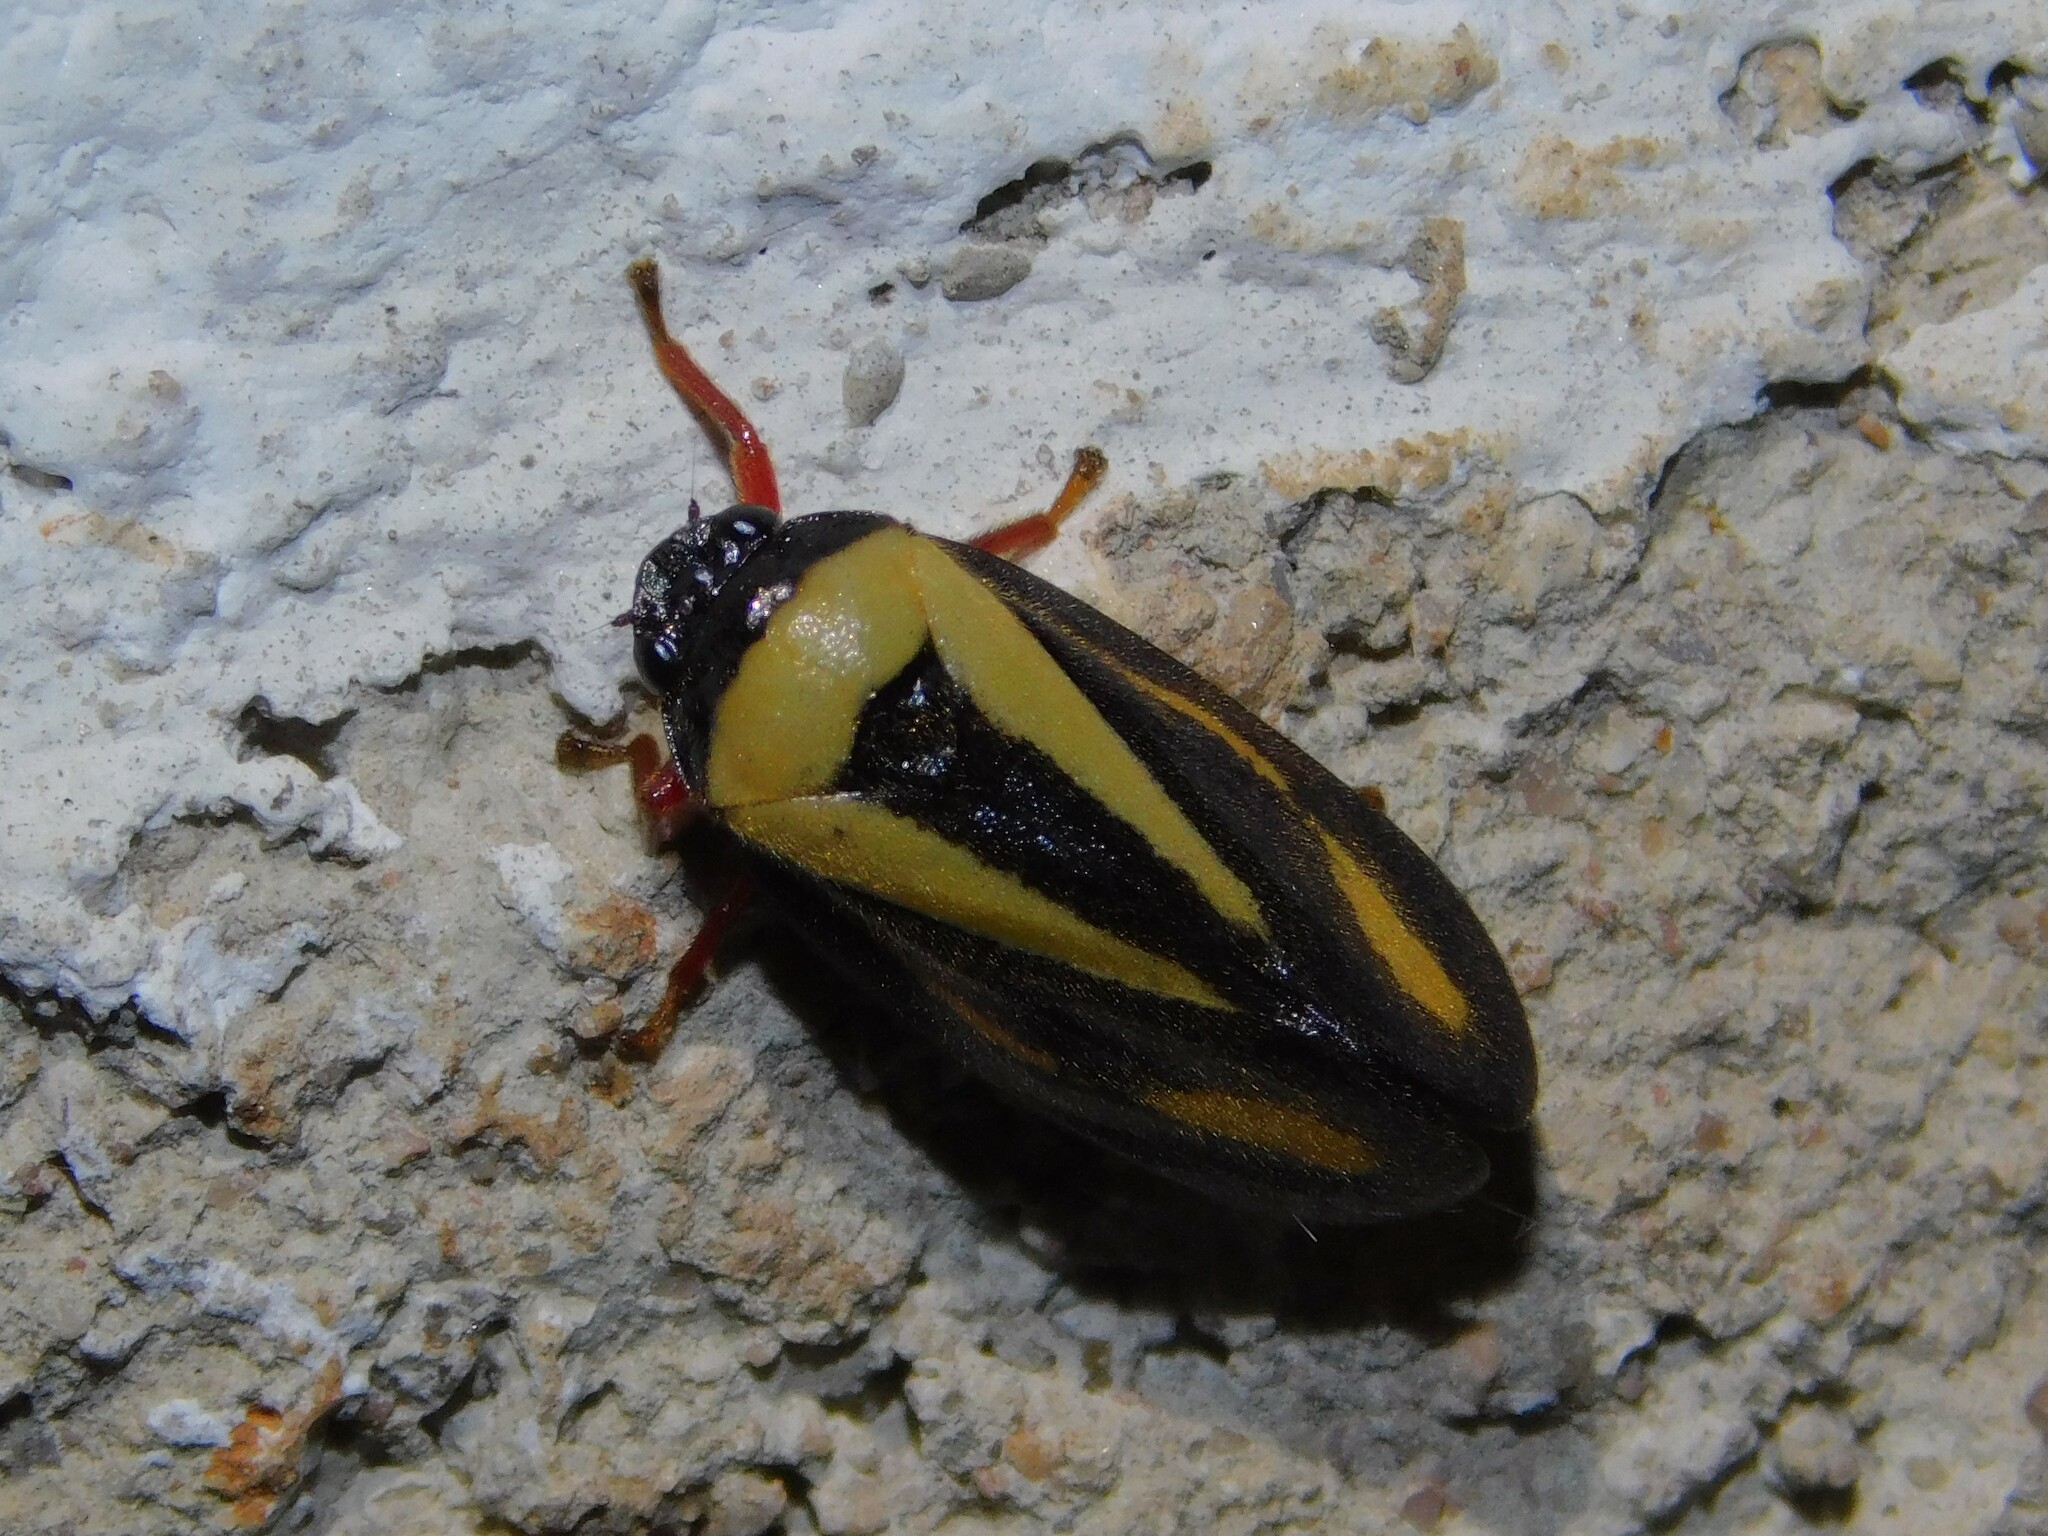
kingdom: Animalia
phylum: Arthropoda
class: Insecta
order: Hemiptera
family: Cercopidae
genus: Hemitriecphora
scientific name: Hemitriecphora haglundi
